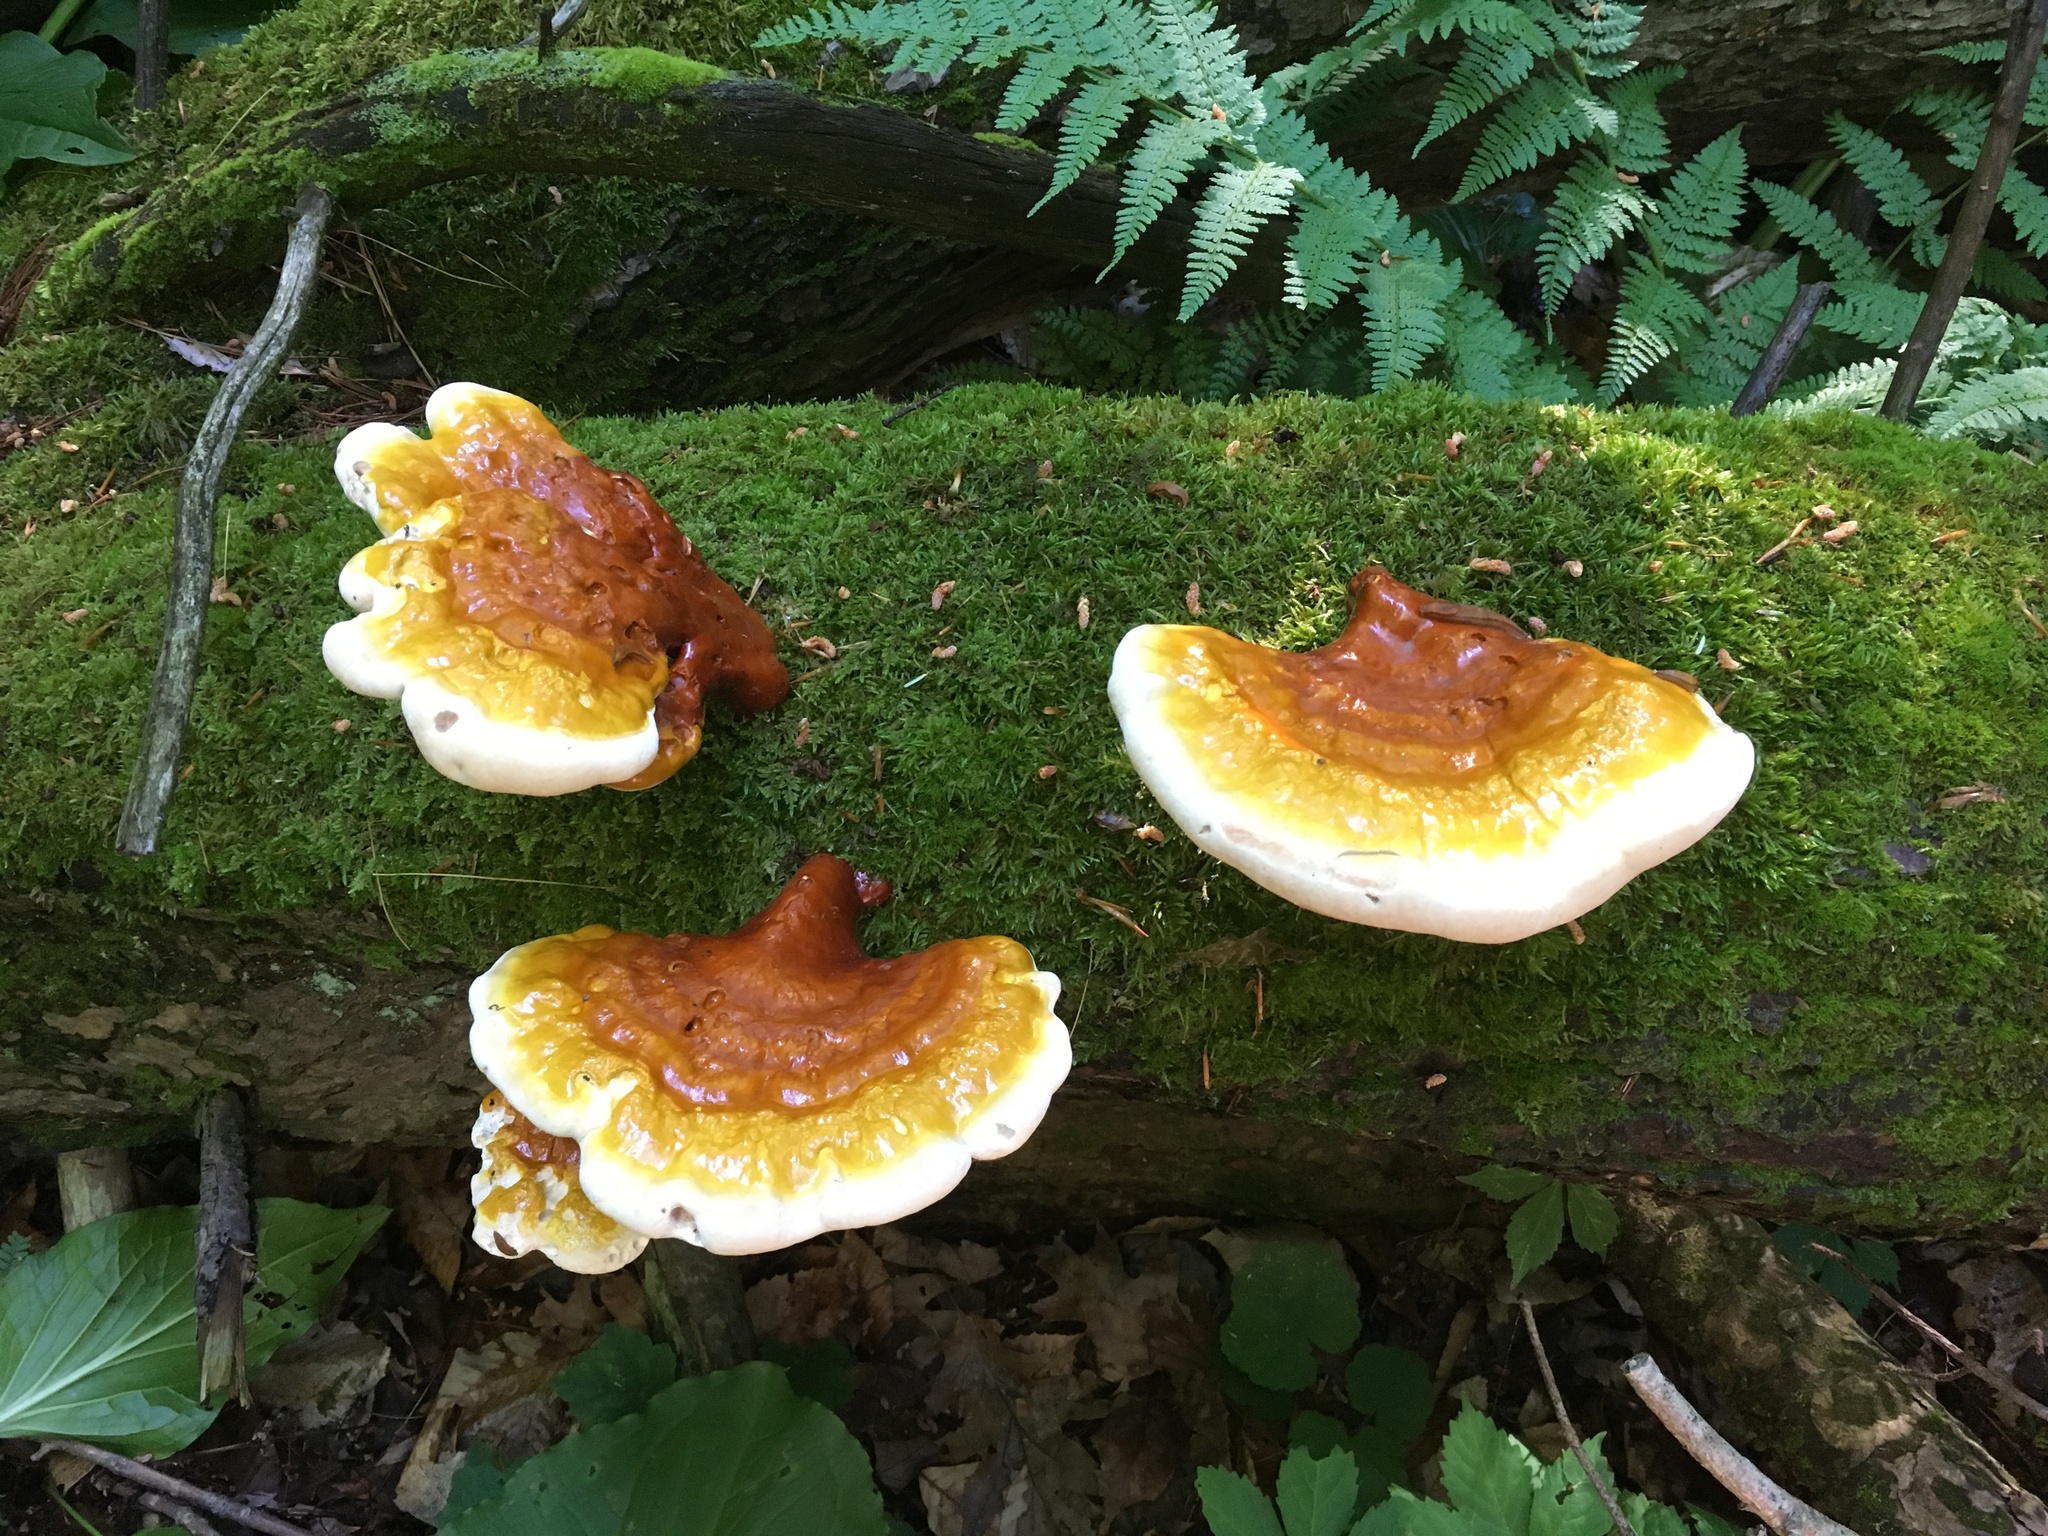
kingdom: Fungi
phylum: Basidiomycota
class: Agaricomycetes
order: Polyporales
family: Polyporaceae
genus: Ganoderma
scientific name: Ganoderma tsugae
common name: Hemlock varnish shelf
